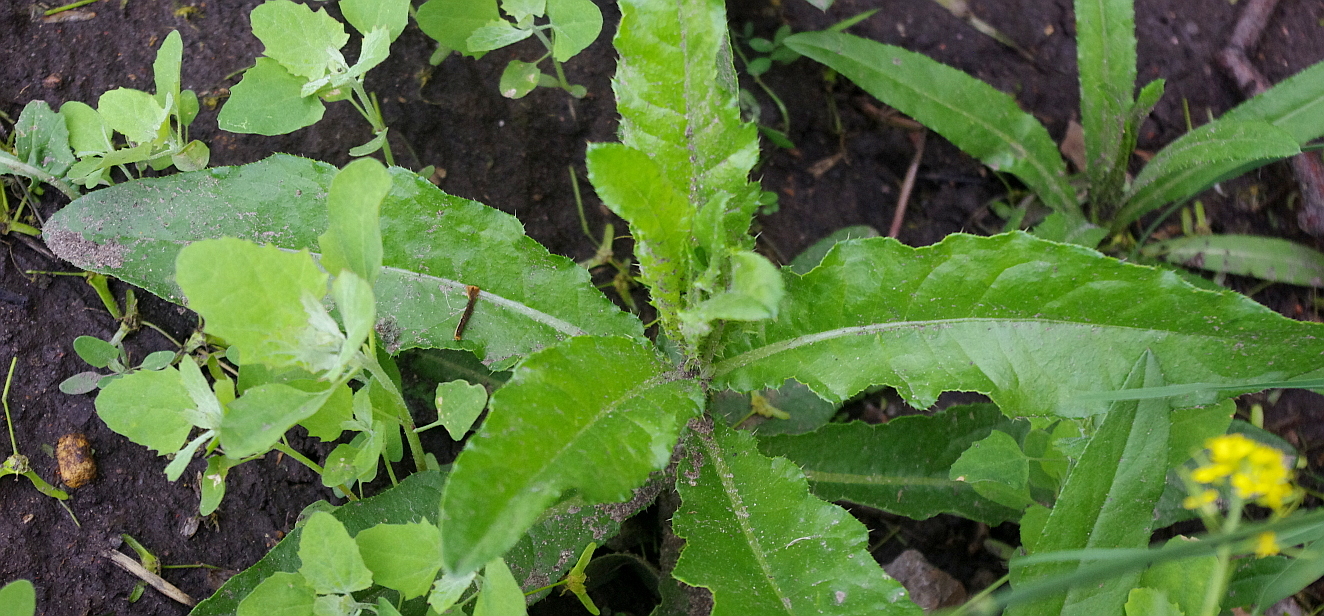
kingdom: Plantae
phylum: Tracheophyta
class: Magnoliopsida
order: Asterales
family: Asteraceae
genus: Cirsium
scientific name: Cirsium arvense
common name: Creeping thistle
